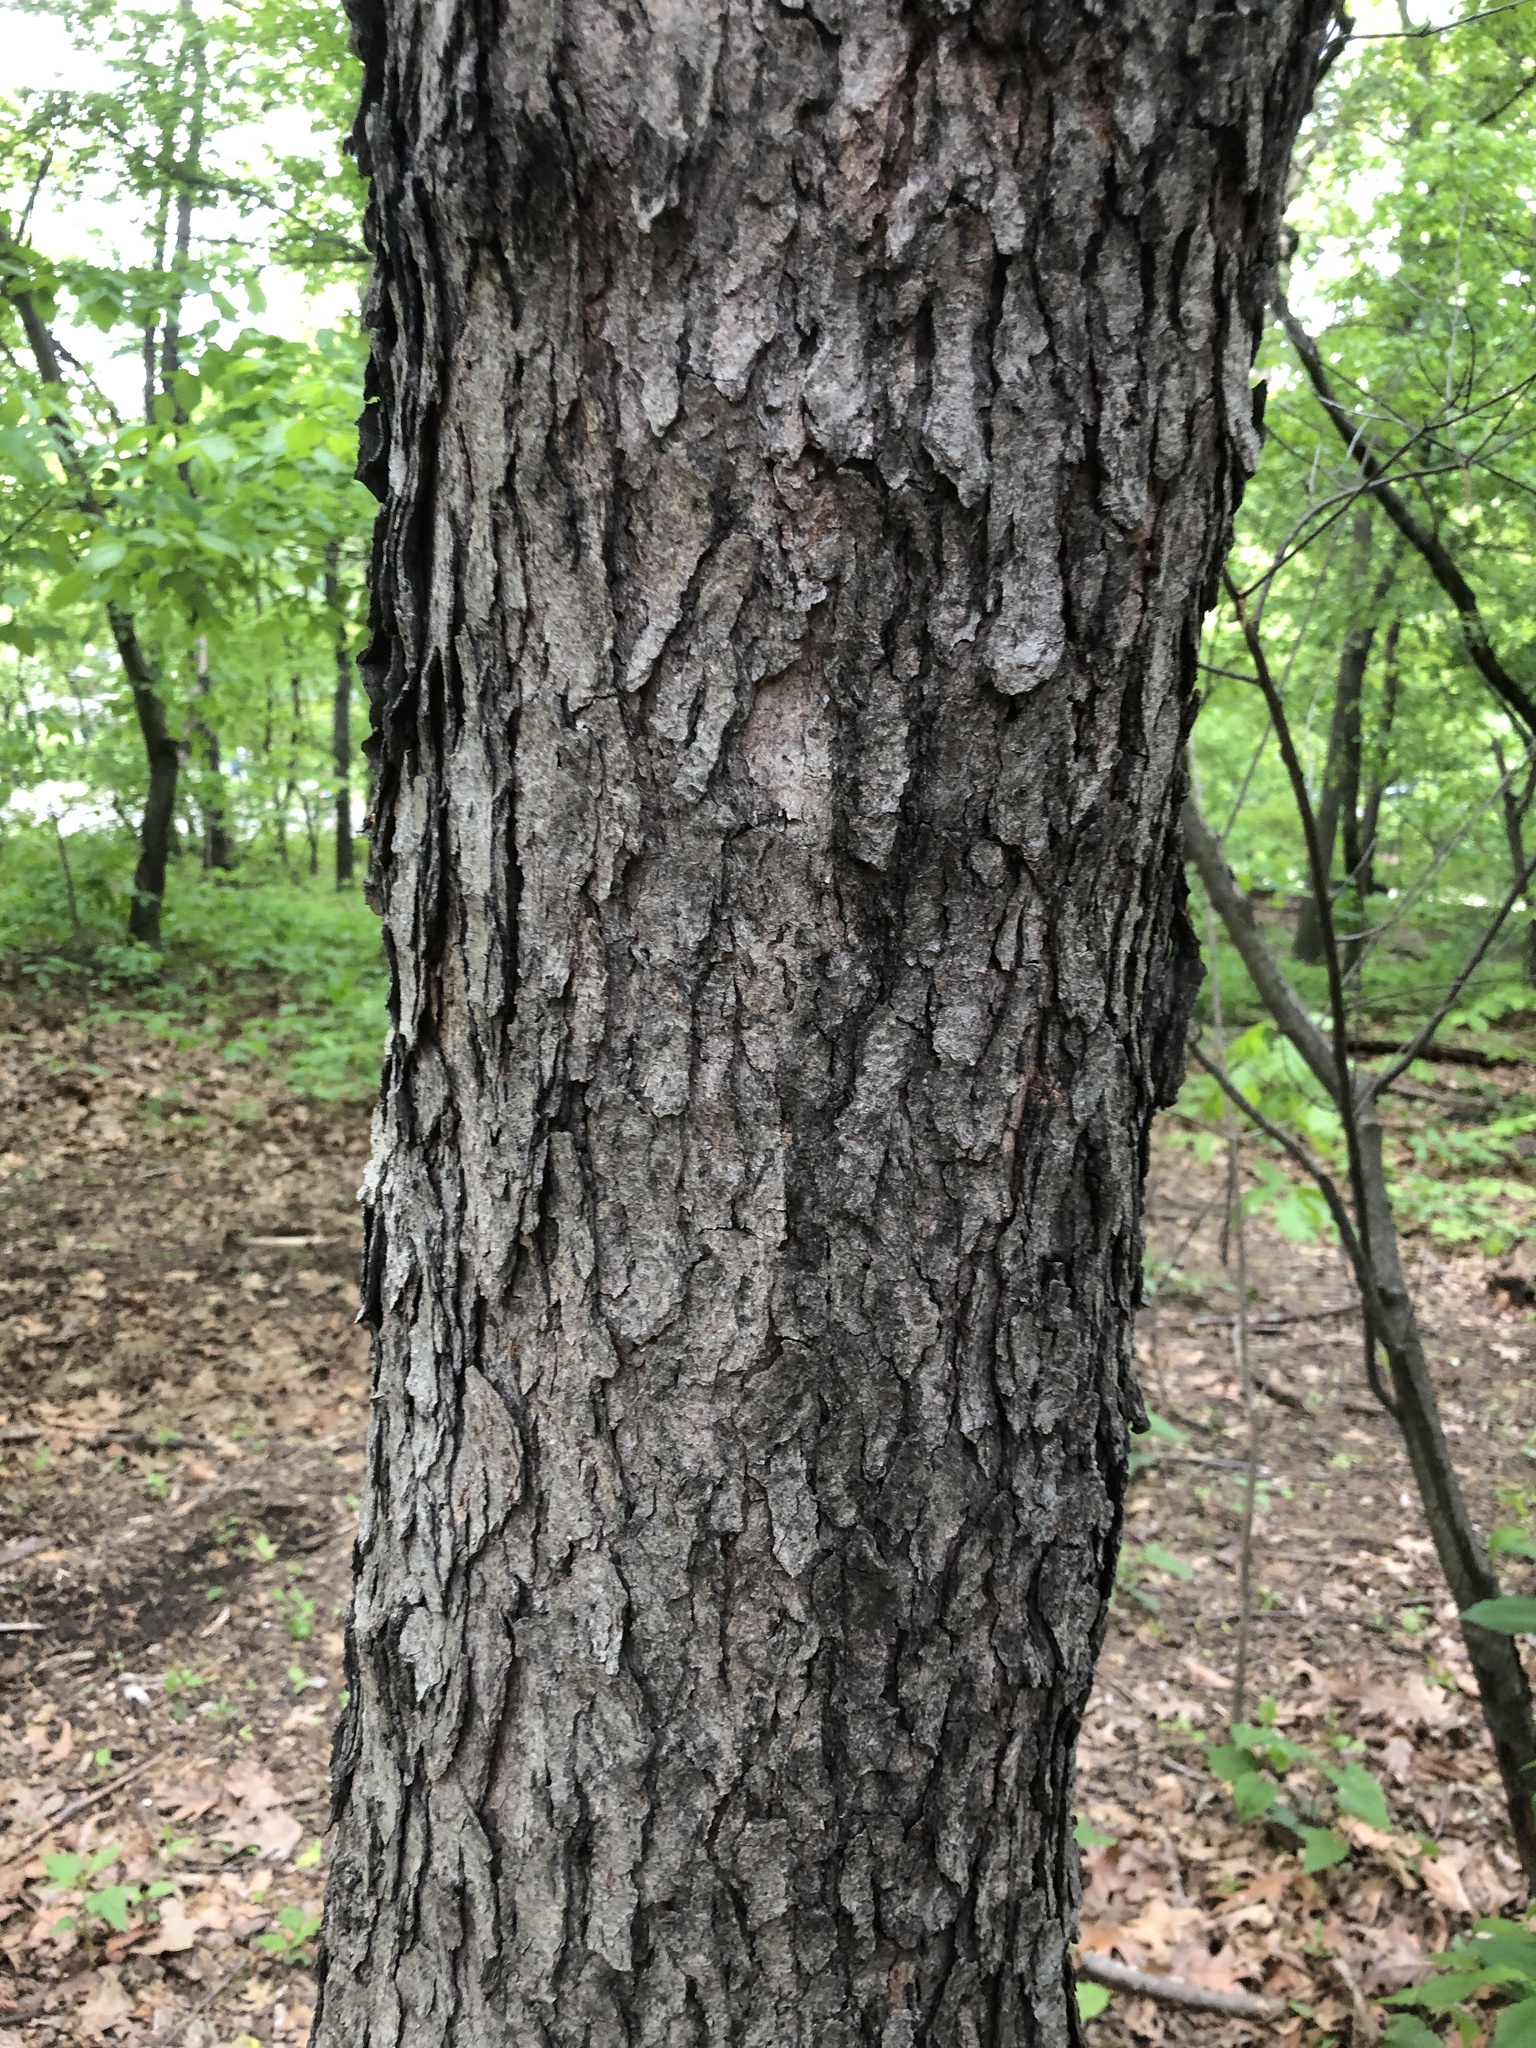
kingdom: Plantae
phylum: Tracheophyta
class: Magnoliopsida
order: Rosales
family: Rosaceae
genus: Prunus
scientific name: Prunus serotina
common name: Black cherry
